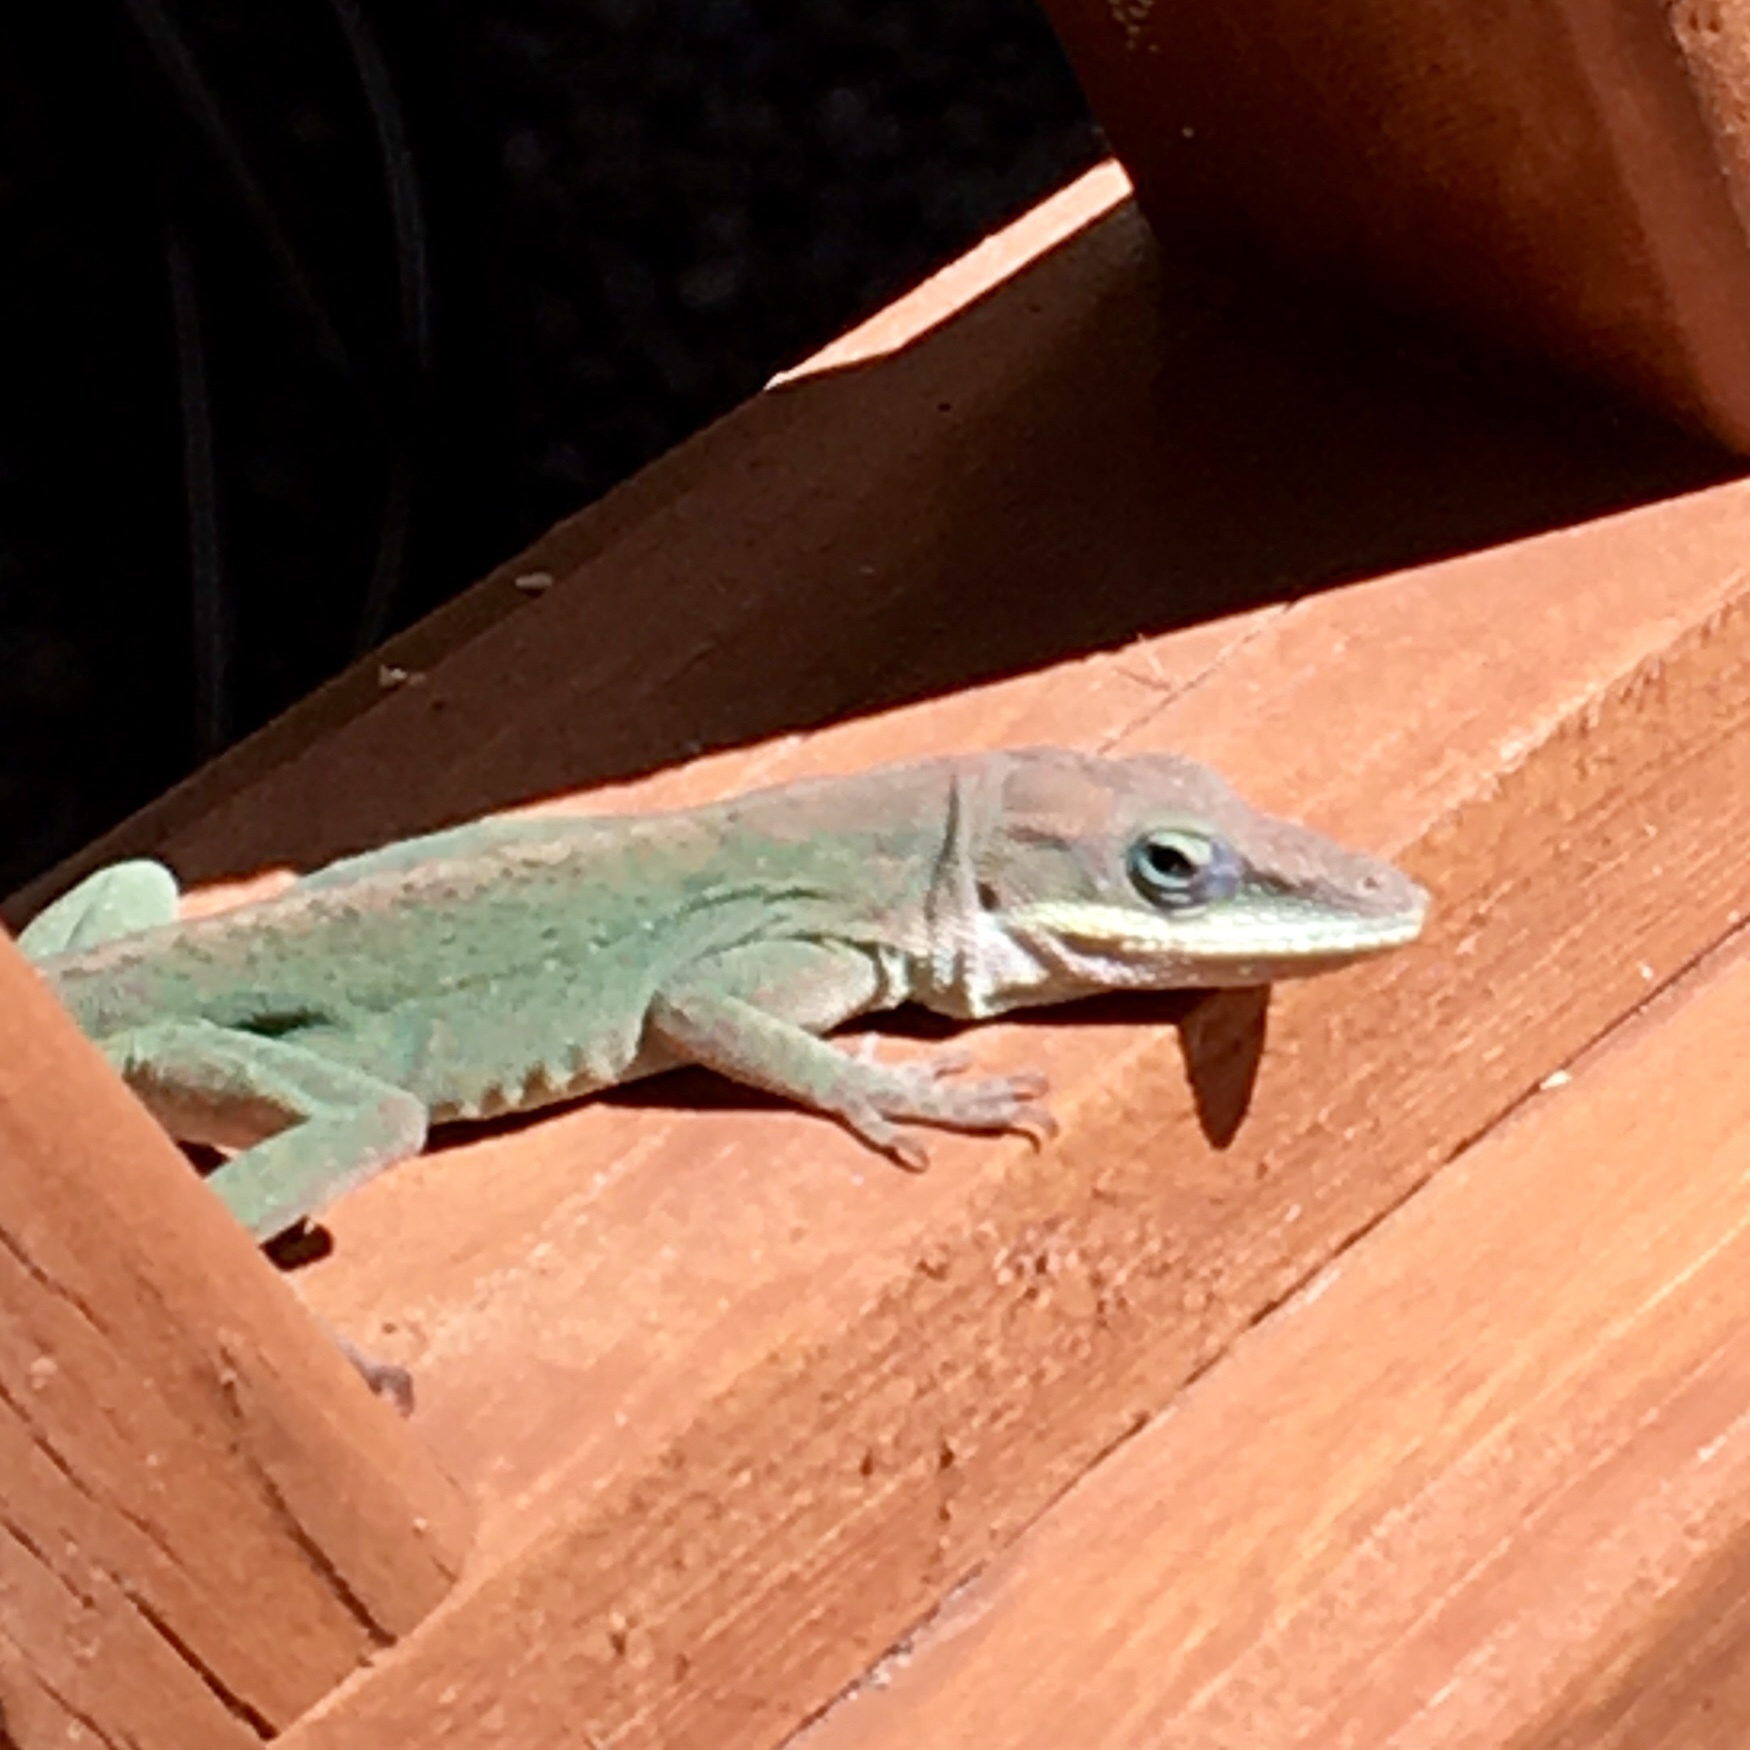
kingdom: Animalia
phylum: Chordata
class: Squamata
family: Dactyloidae
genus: Anolis
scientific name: Anolis carolinensis
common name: Green anole
